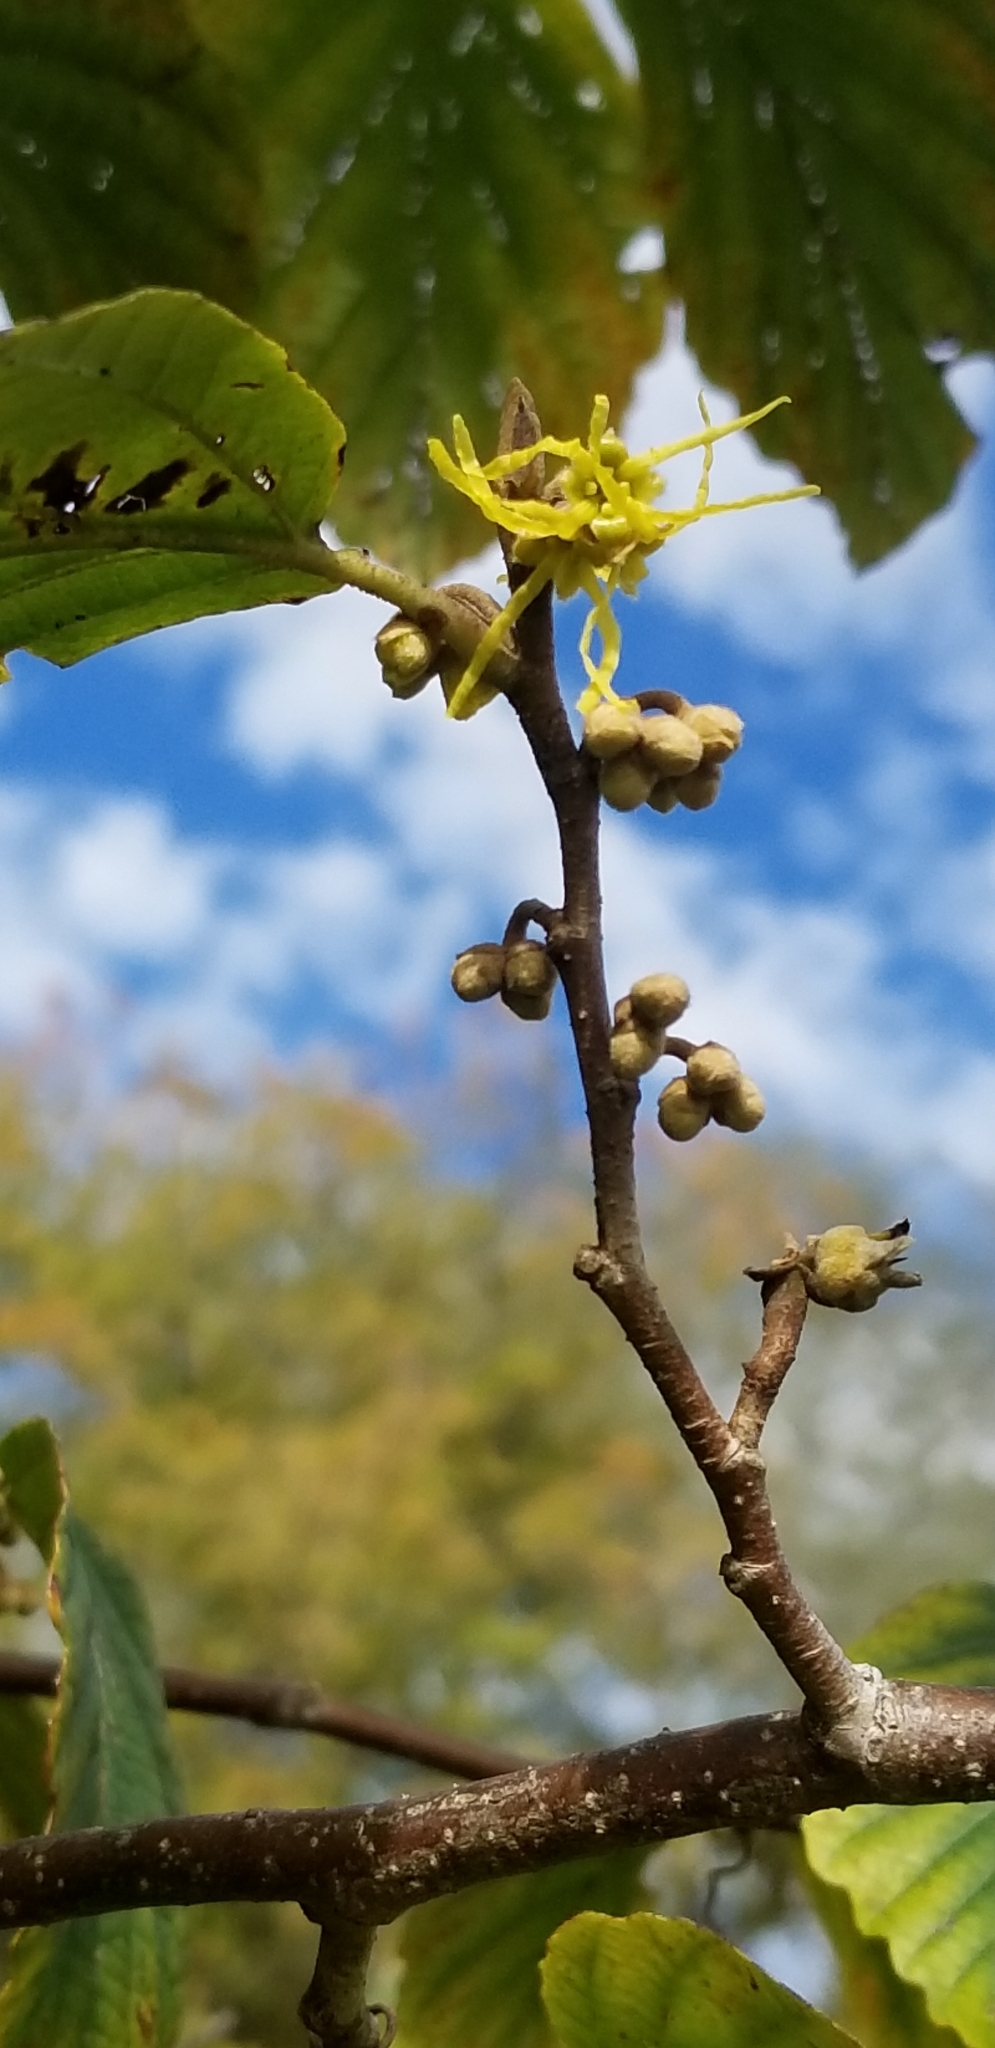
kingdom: Plantae
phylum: Tracheophyta
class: Magnoliopsida
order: Saxifragales
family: Hamamelidaceae
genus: Hamamelis
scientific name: Hamamelis virginiana
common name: Witch-hazel
